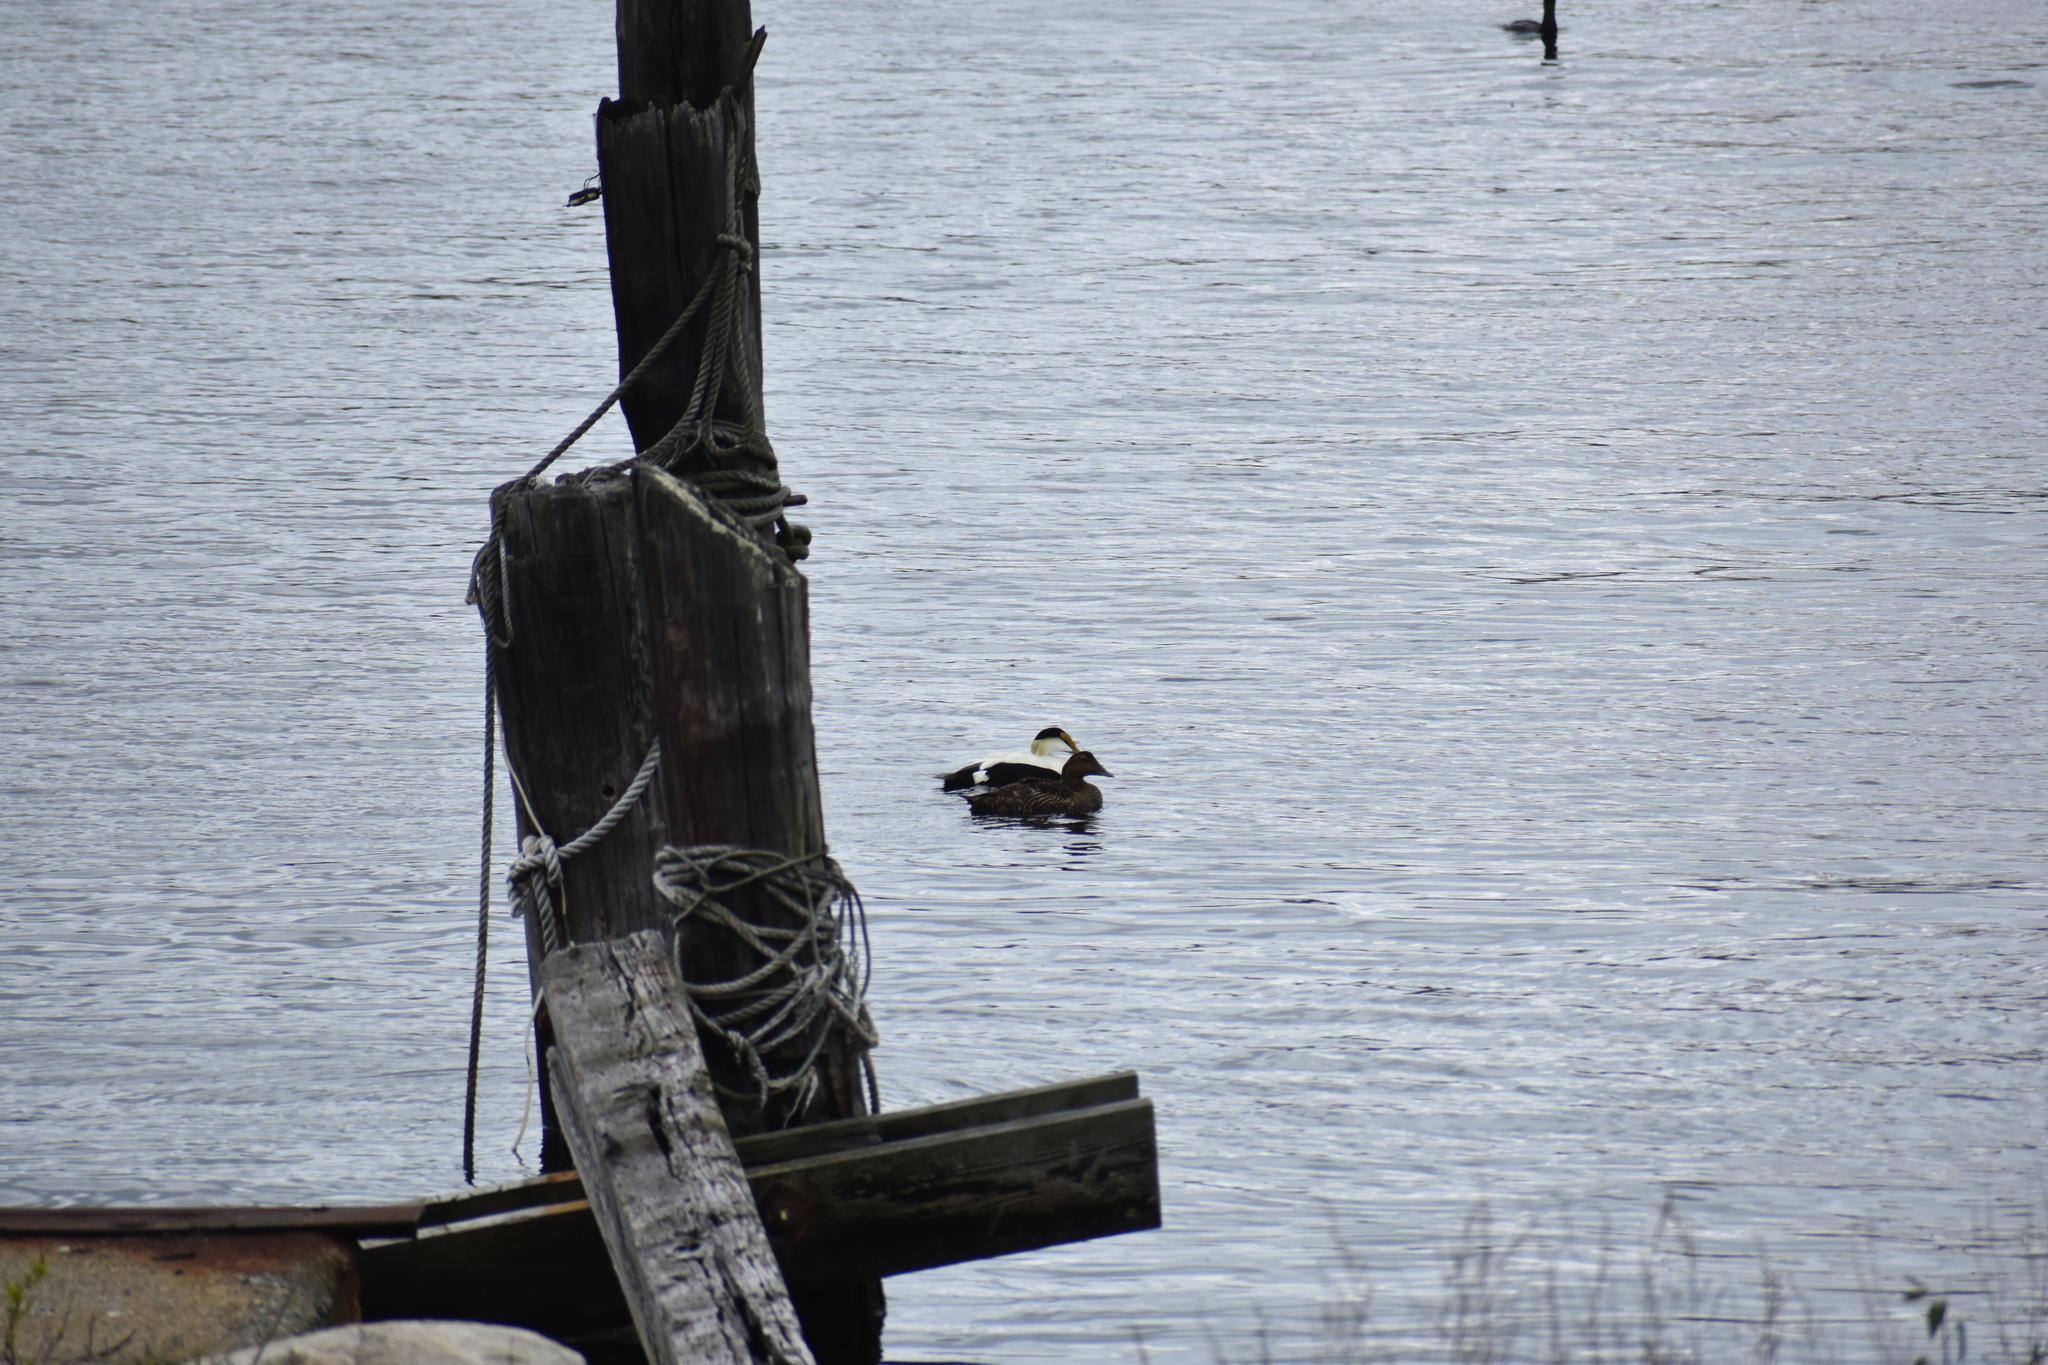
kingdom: Animalia
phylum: Chordata
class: Aves
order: Anseriformes
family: Anatidae
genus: Somateria
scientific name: Somateria mollissima
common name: Common eider
